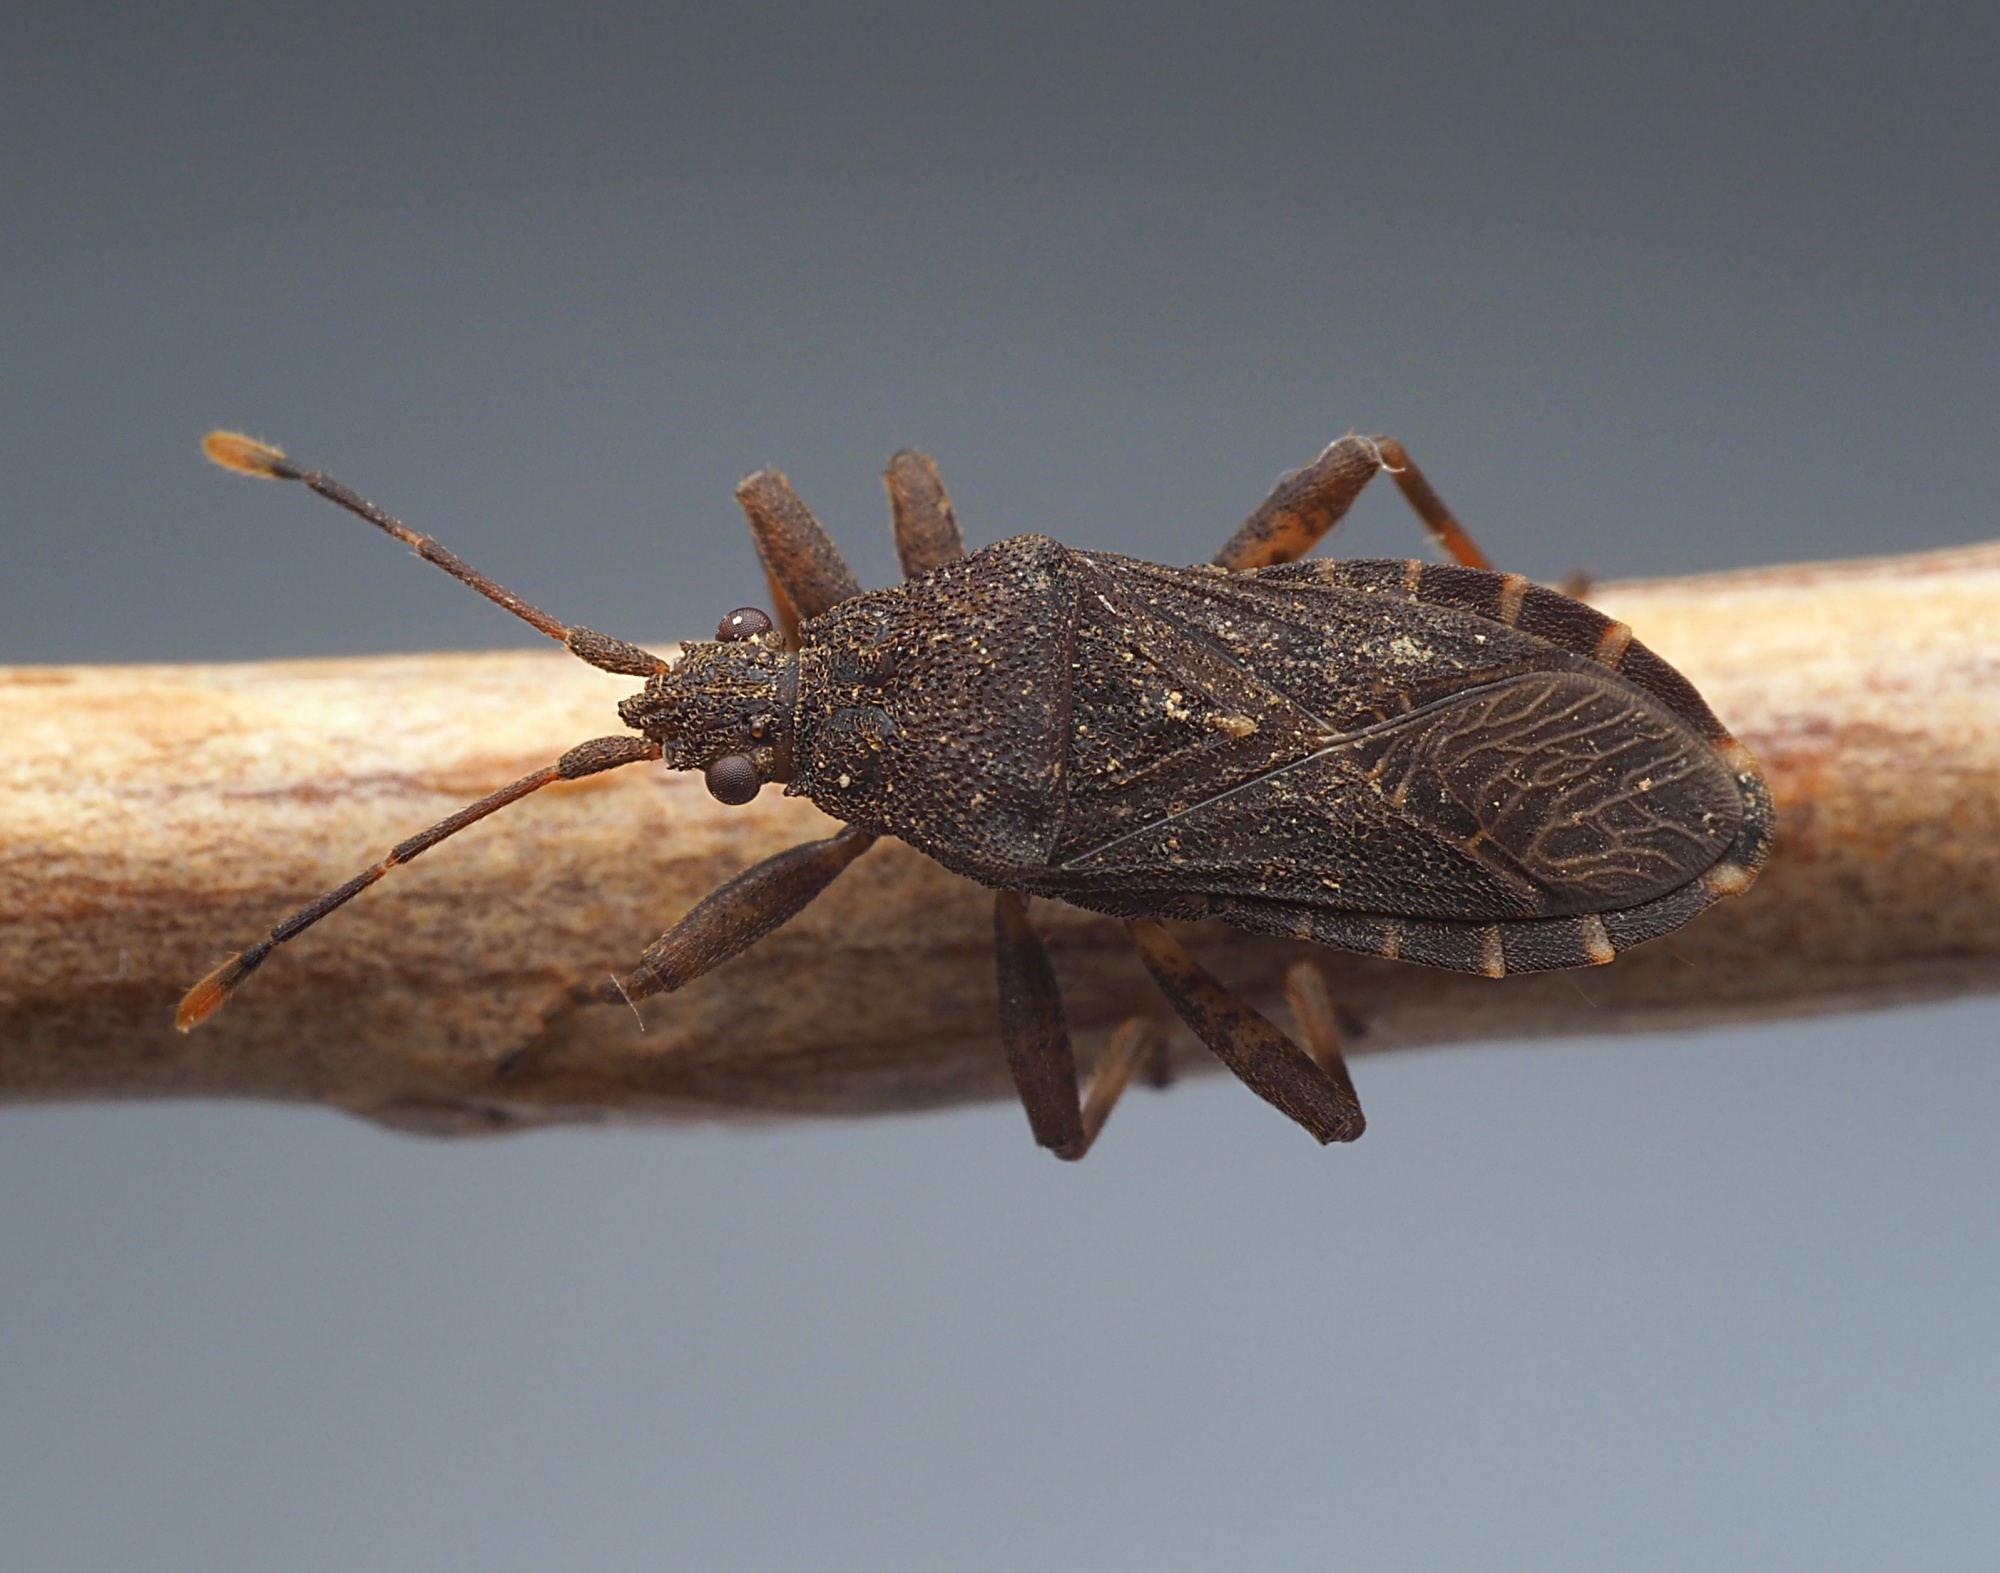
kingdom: Animalia
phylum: Arthropoda
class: Insecta
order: Hemiptera
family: Coreidae
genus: Acantholybas
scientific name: Acantholybas brunneus
